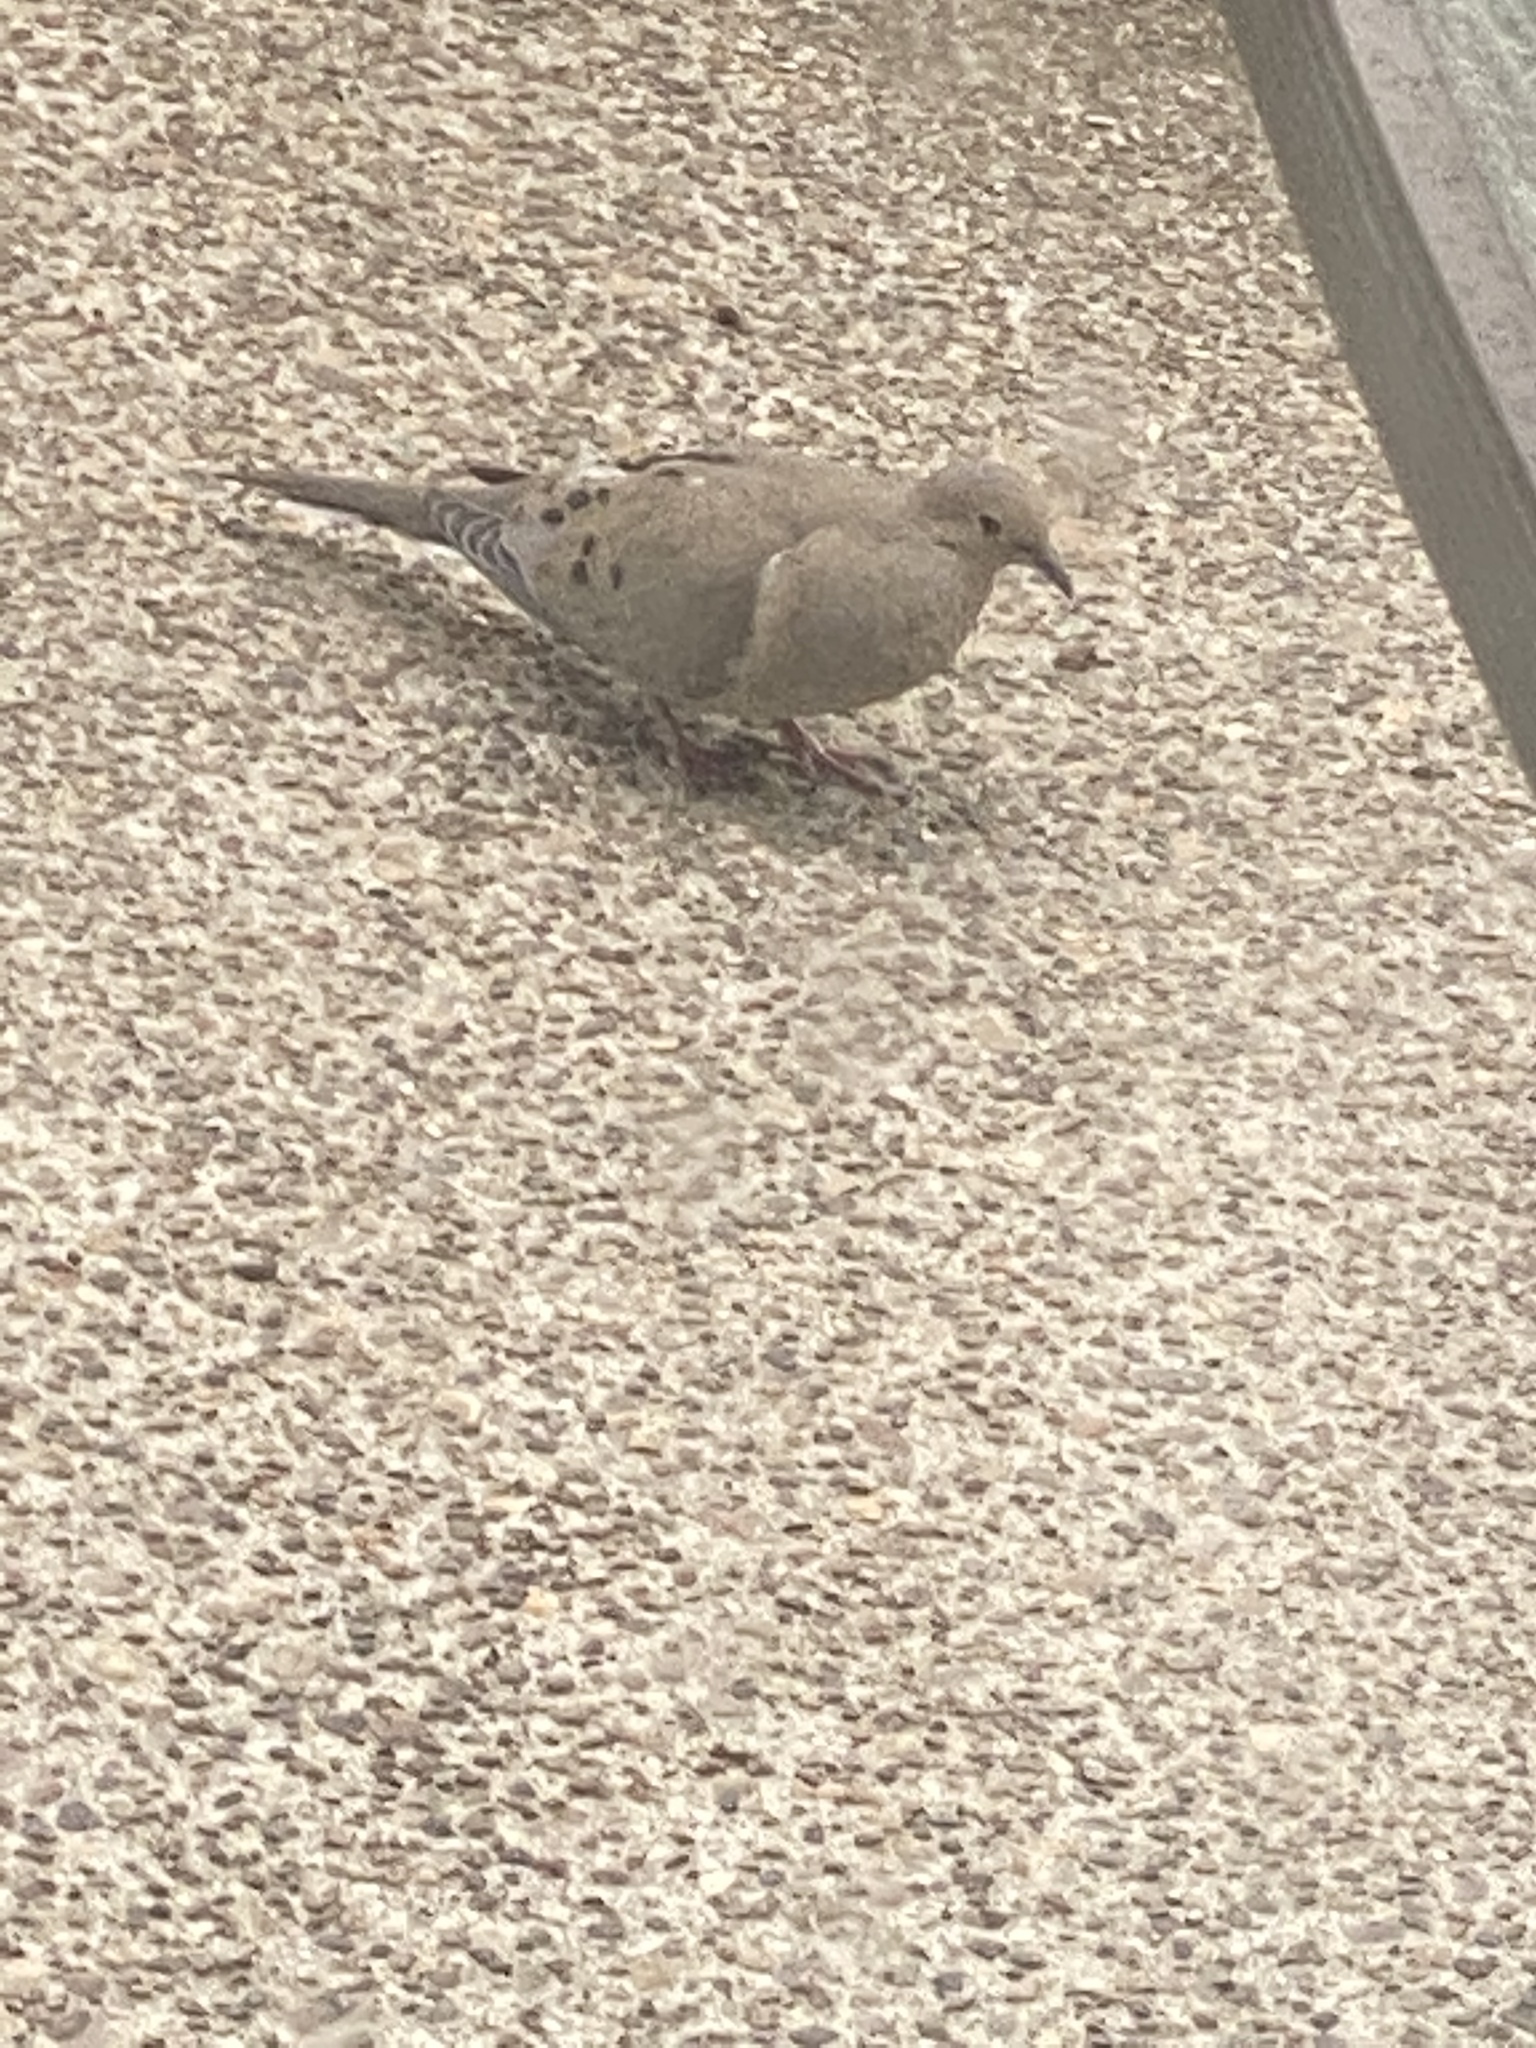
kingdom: Animalia
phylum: Chordata
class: Aves
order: Columbiformes
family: Columbidae
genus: Zenaida
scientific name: Zenaida macroura
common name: Mourning dove
